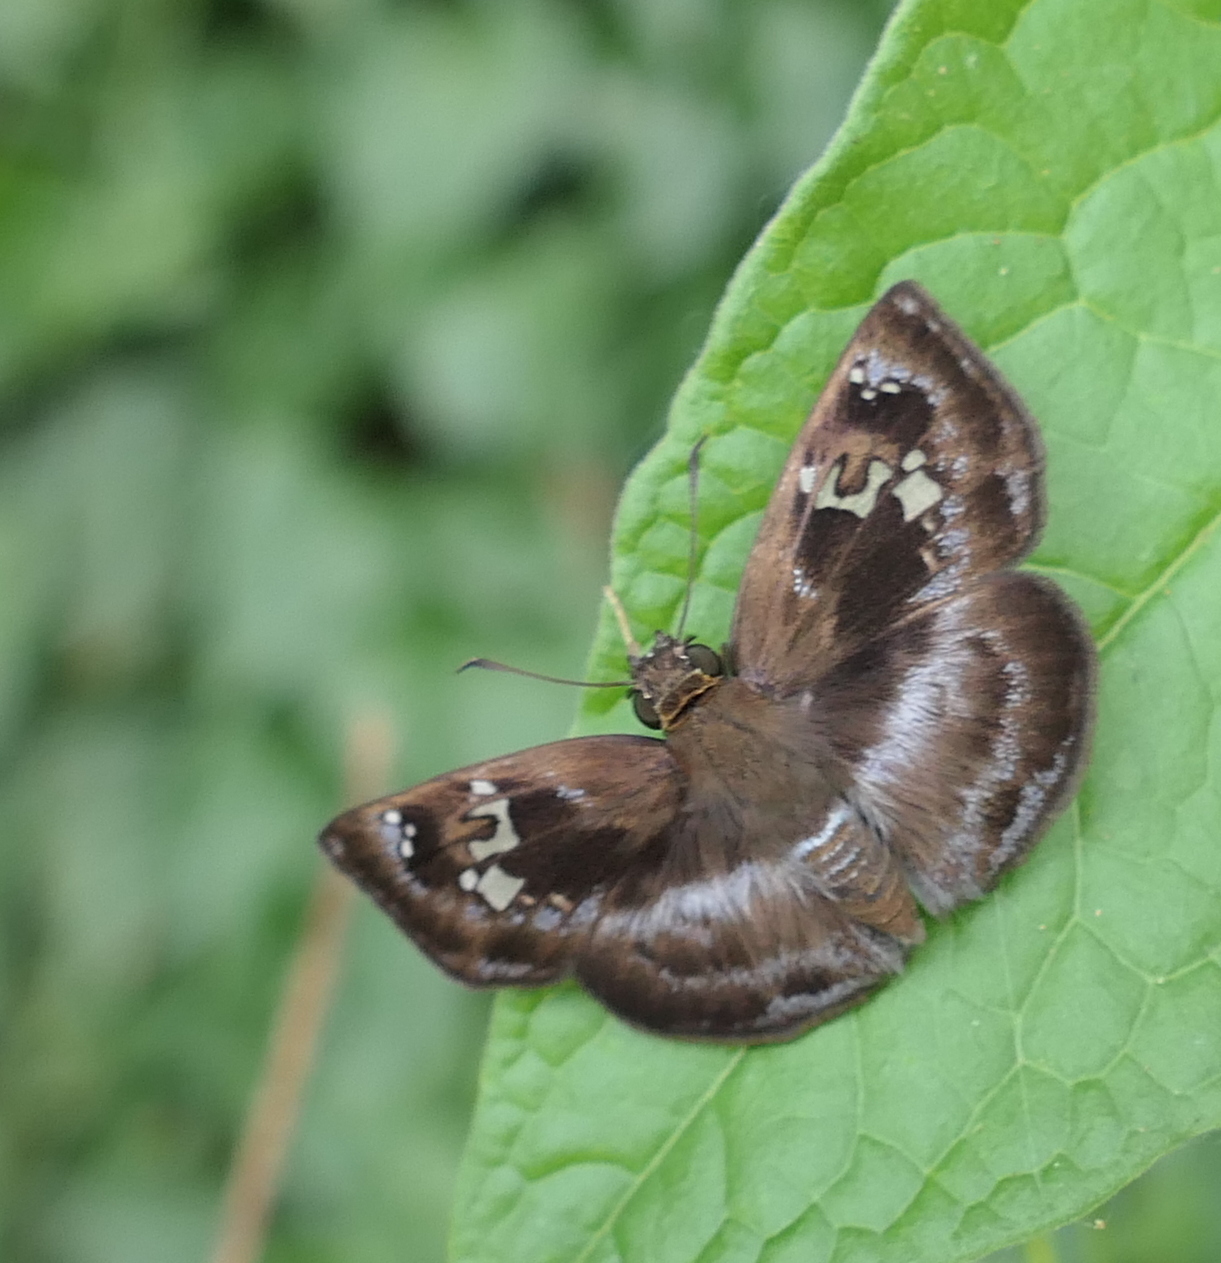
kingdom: Animalia
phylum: Arthropoda
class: Insecta
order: Lepidoptera
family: Hesperiidae
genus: Quadrus
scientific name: Quadrus cerialis
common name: Common blue-skipper
